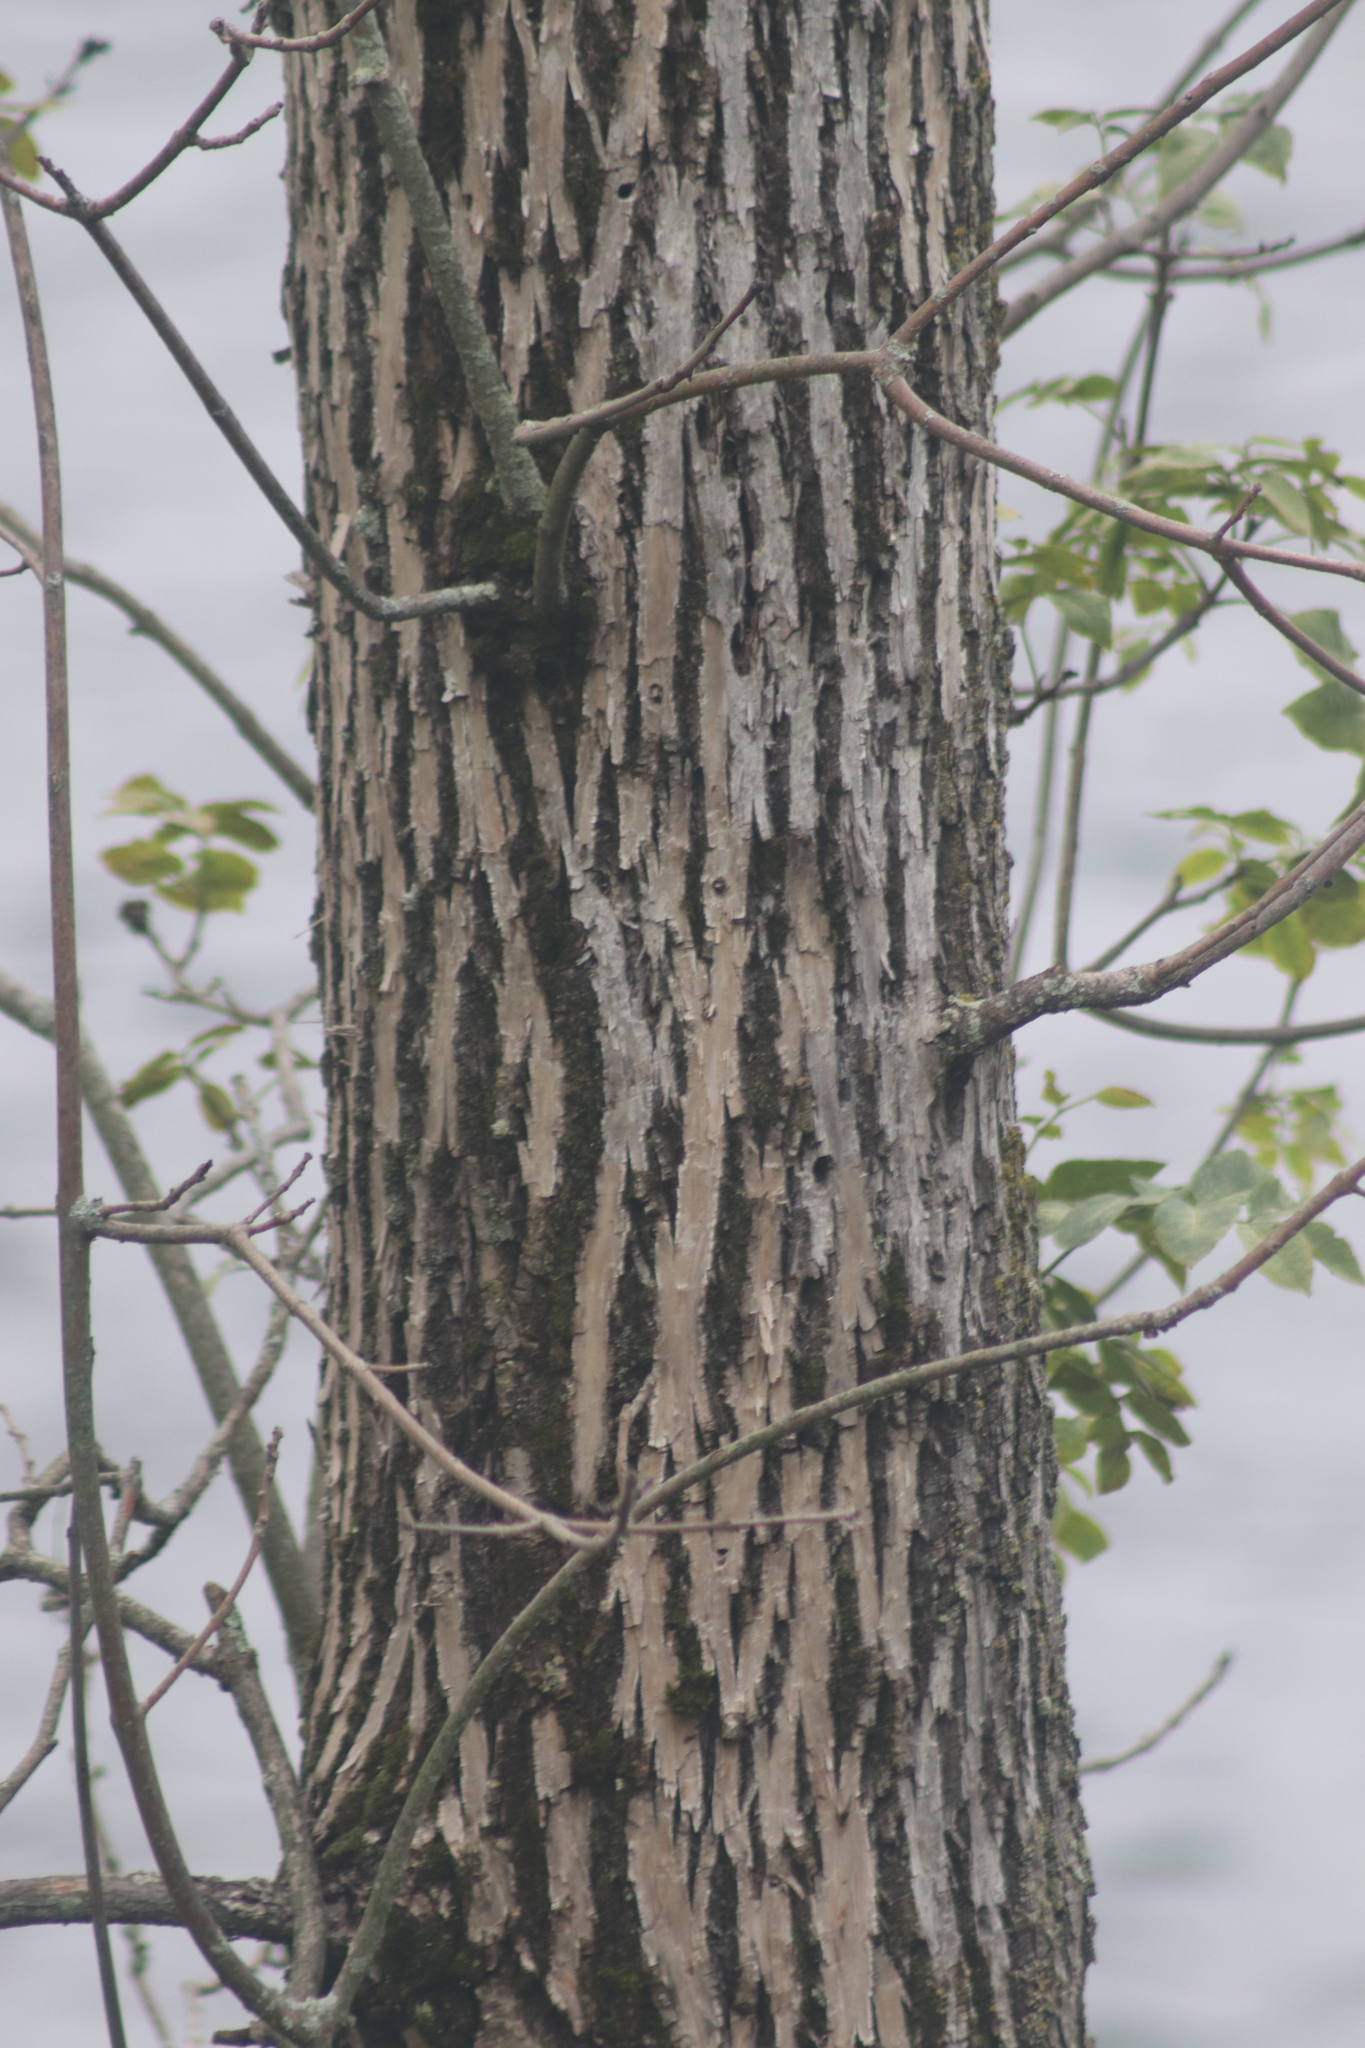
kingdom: Animalia
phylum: Arthropoda
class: Insecta
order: Coleoptera
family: Buprestidae
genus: Agrilus
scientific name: Agrilus planipennis
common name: Emerald ash borer
